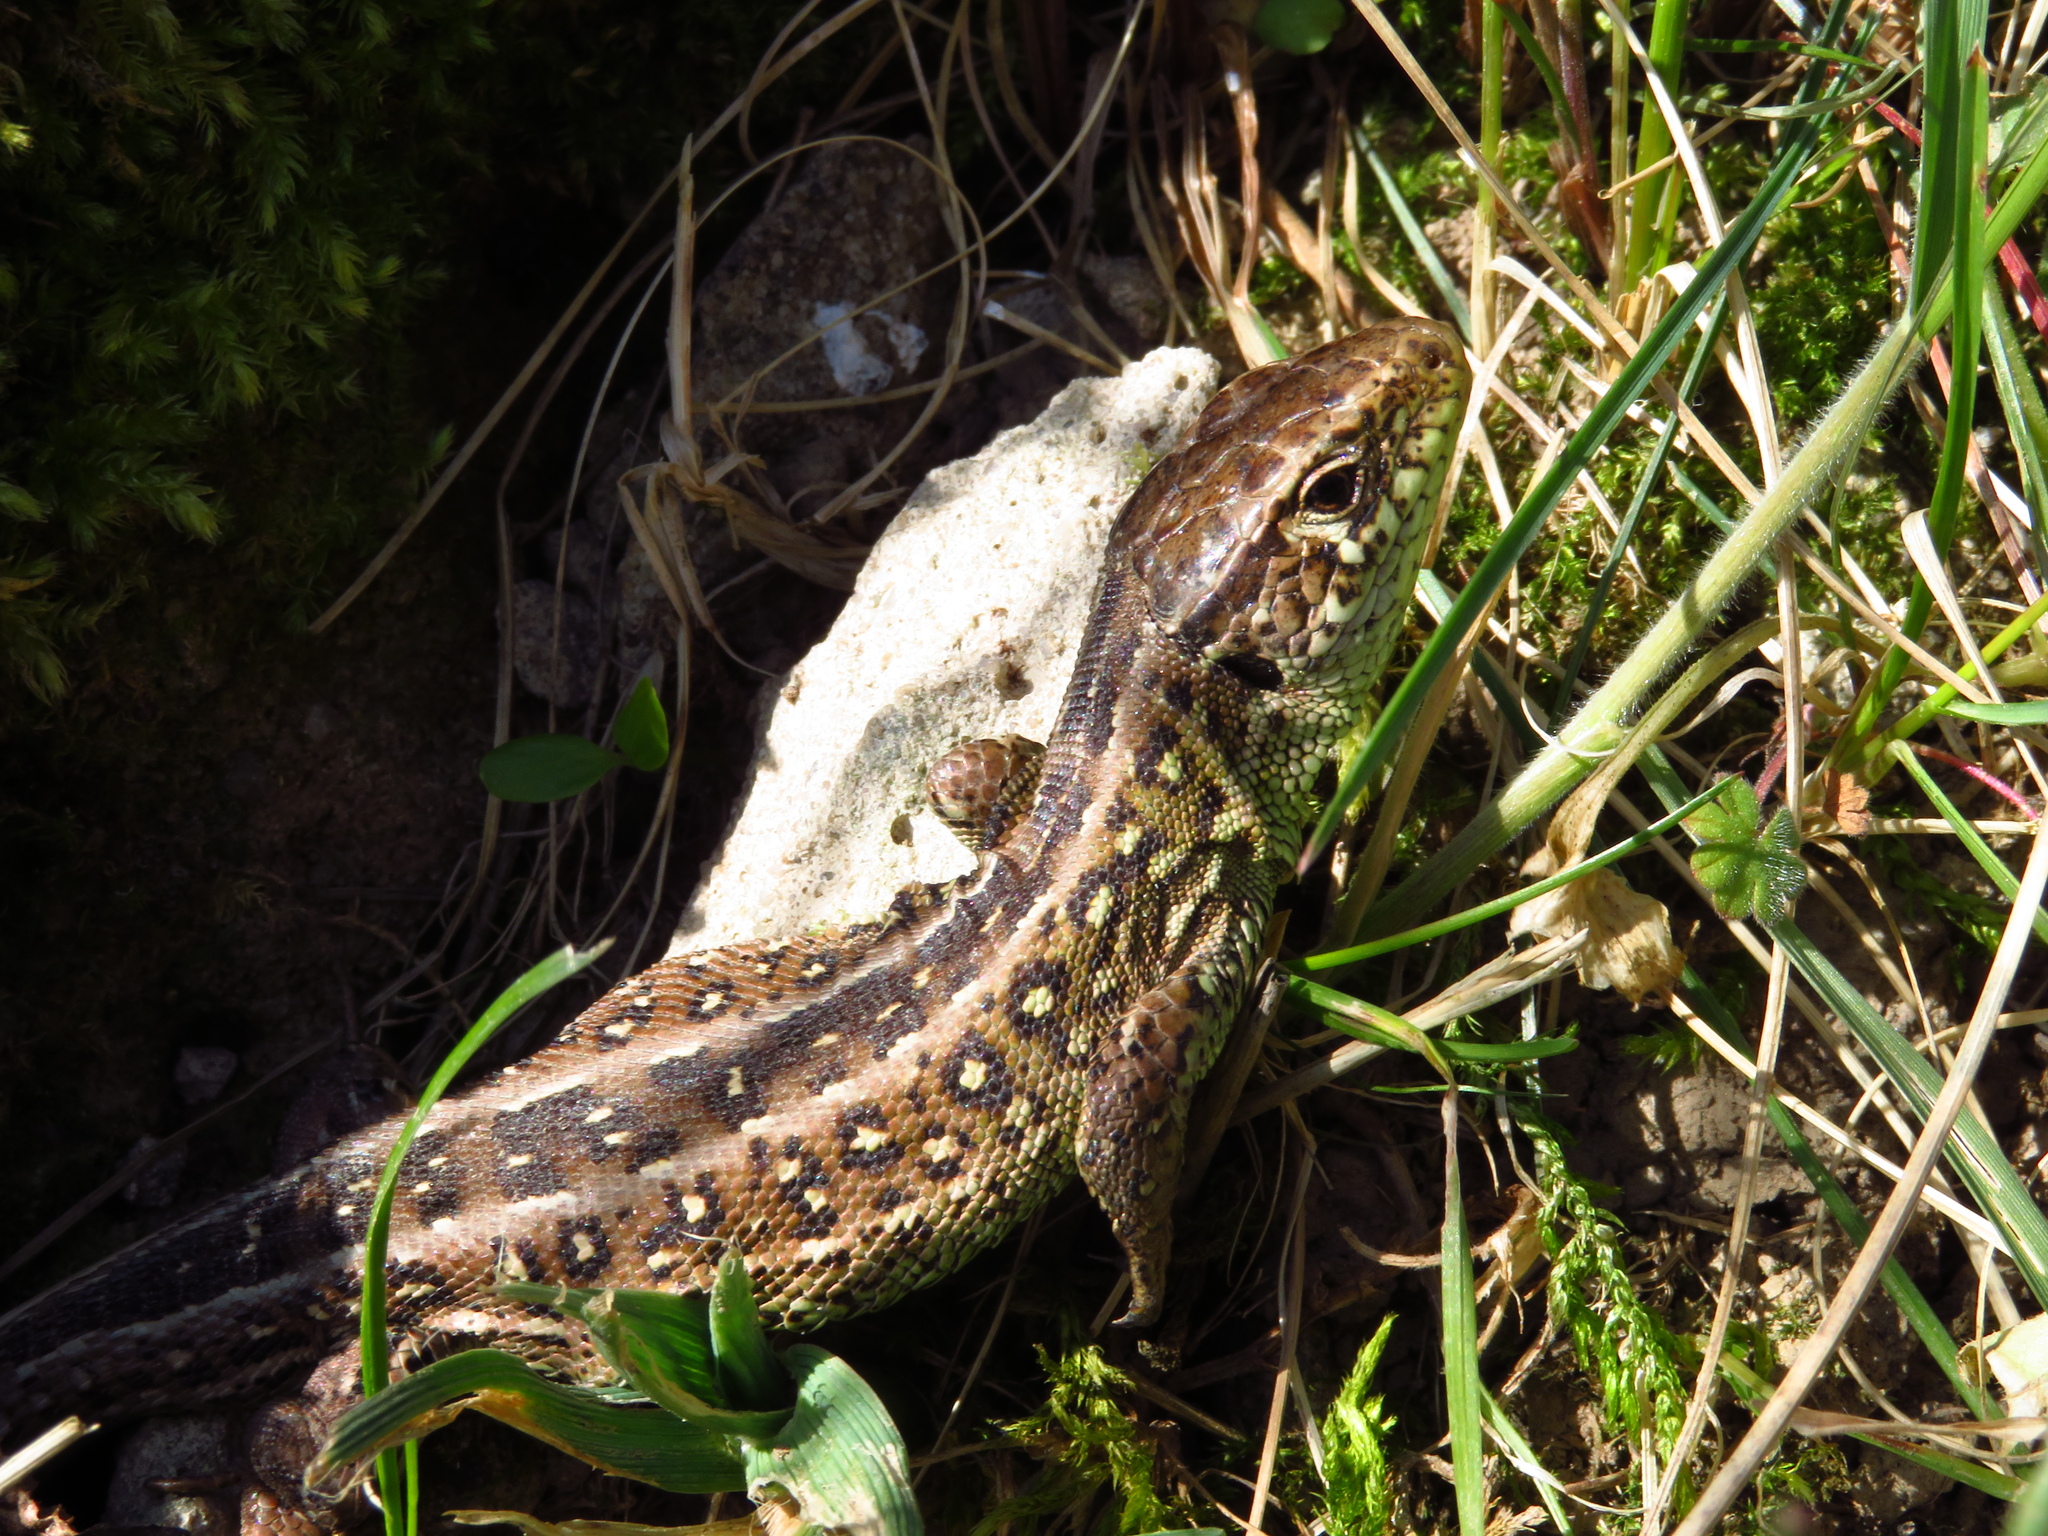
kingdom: Animalia
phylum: Chordata
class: Squamata
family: Lacertidae
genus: Lacerta
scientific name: Lacerta agilis
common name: Sand lizard
